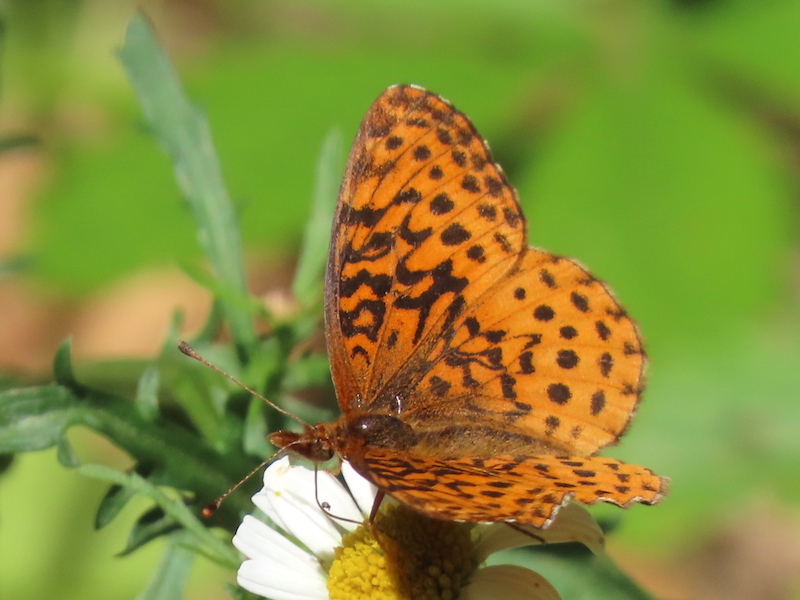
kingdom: Animalia
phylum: Arthropoda
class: Insecta
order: Lepidoptera
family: Nymphalidae
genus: Clossiana
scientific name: Clossiana toddi
